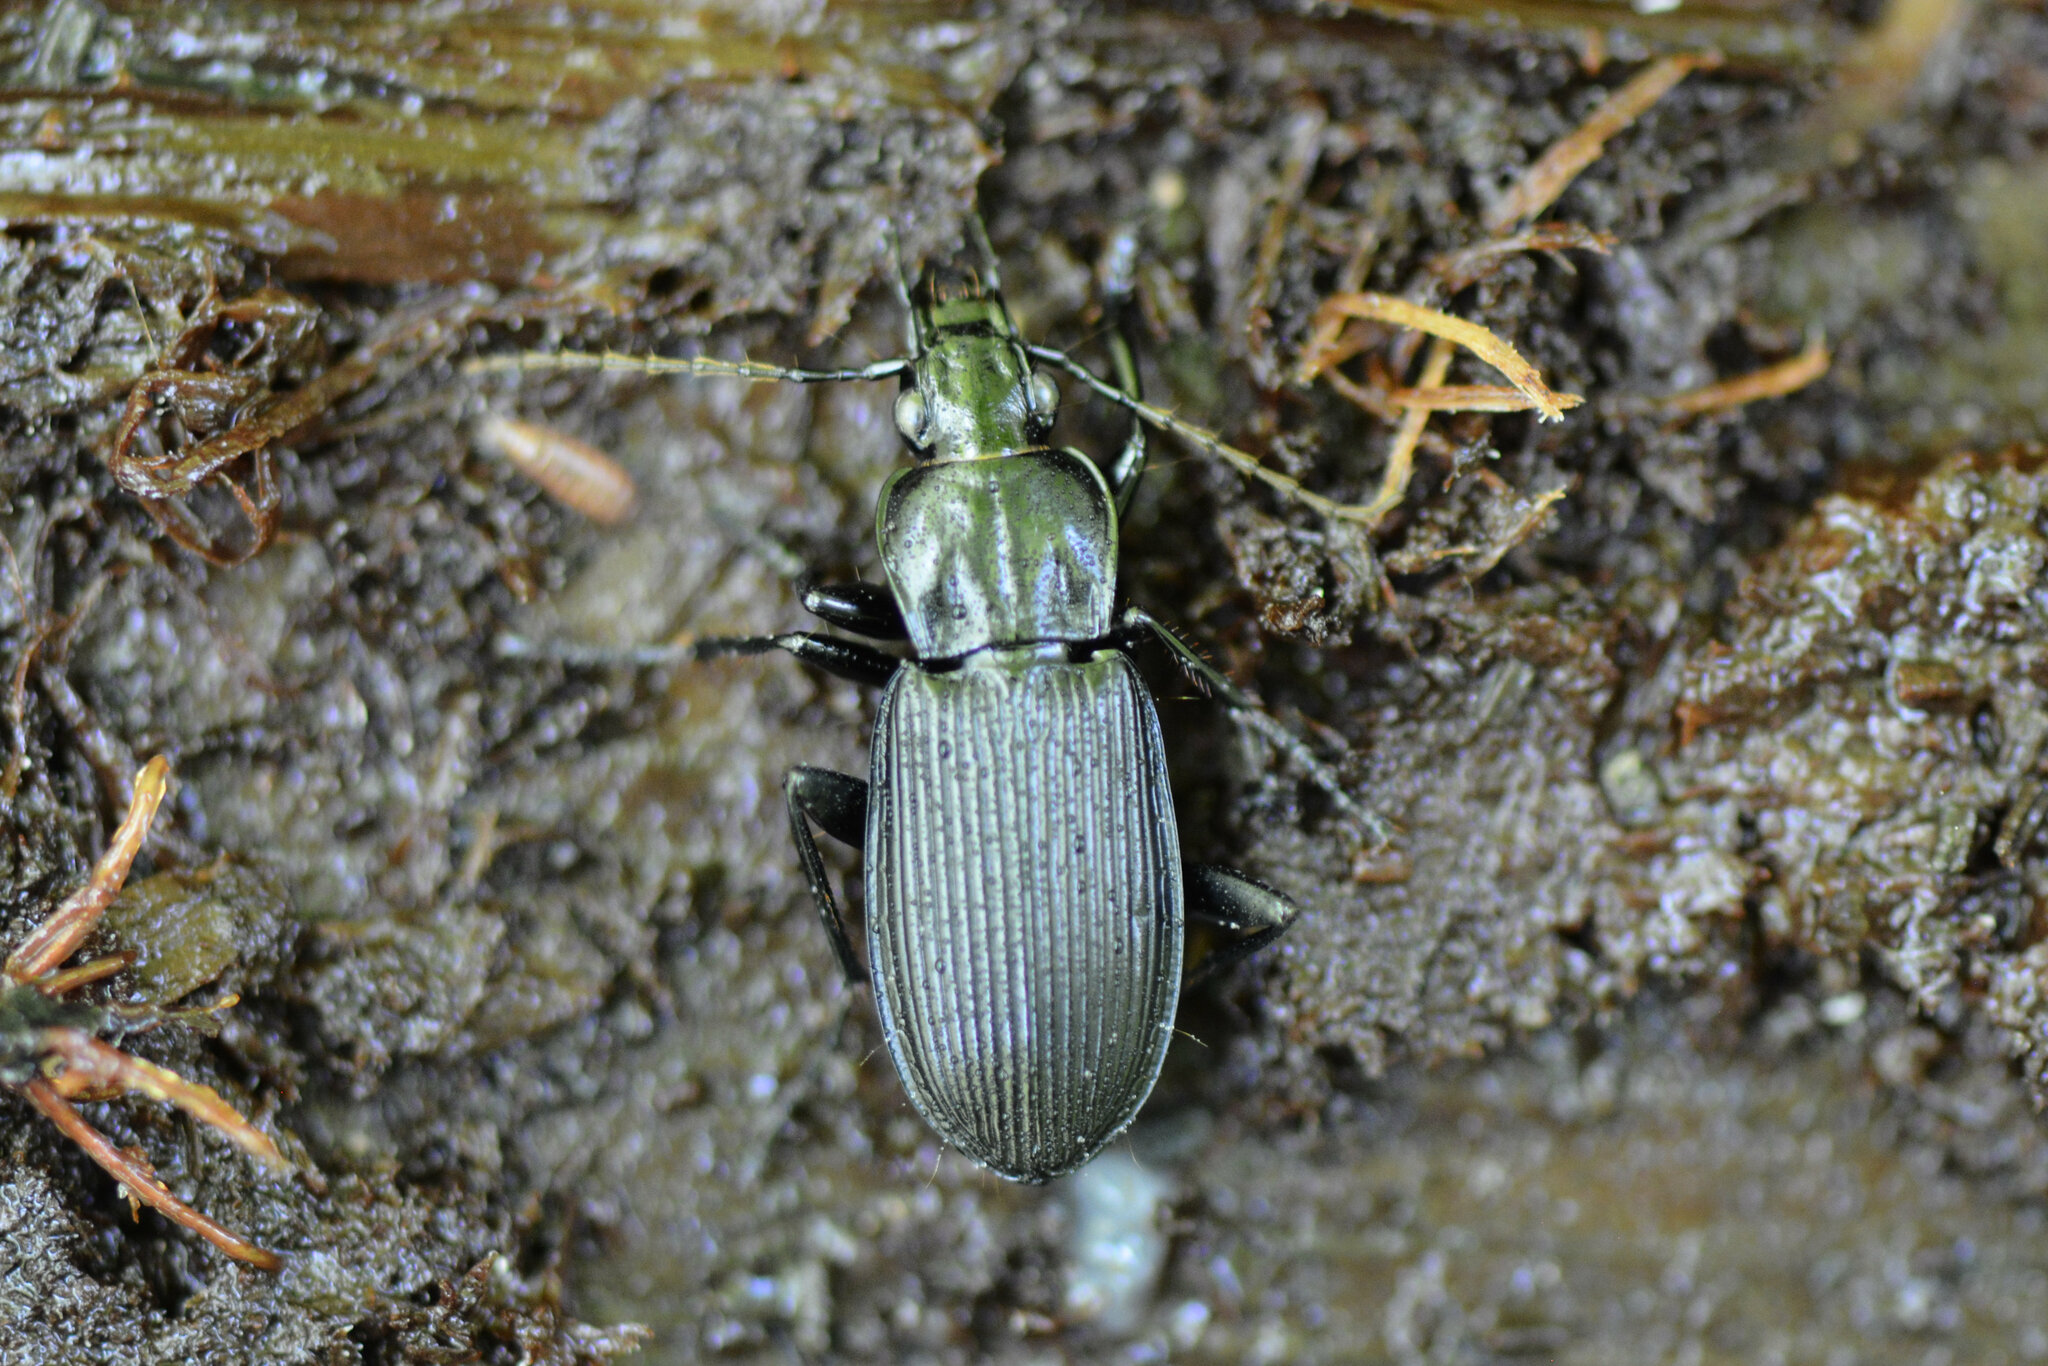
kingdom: Animalia
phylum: Arthropoda
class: Insecta
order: Coleoptera
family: Carabidae
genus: Pterostichus
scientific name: Pterostichus niger
